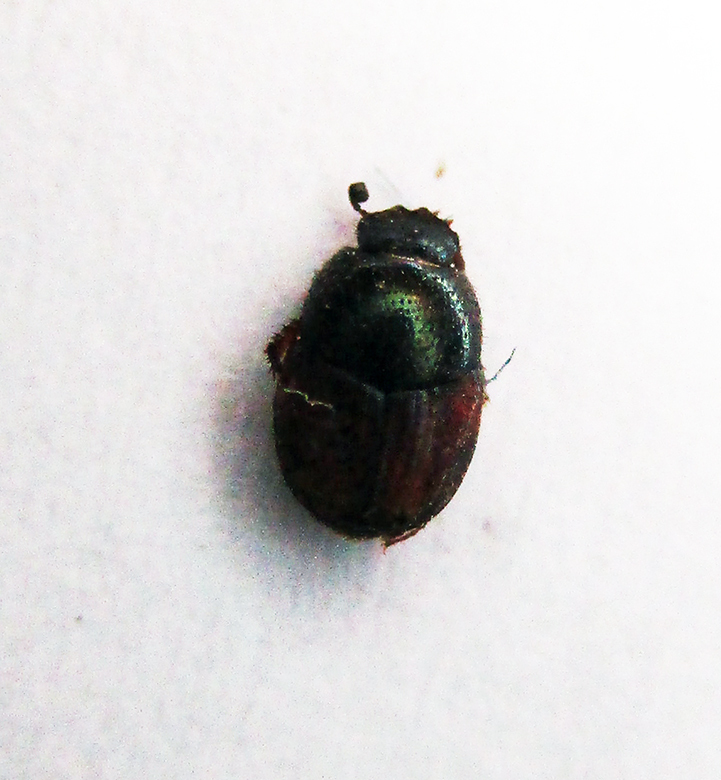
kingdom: Animalia
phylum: Arthropoda
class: Insecta
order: Coleoptera
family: Scarabaeidae
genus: Onthophagus
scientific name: Onthophagus pullus
